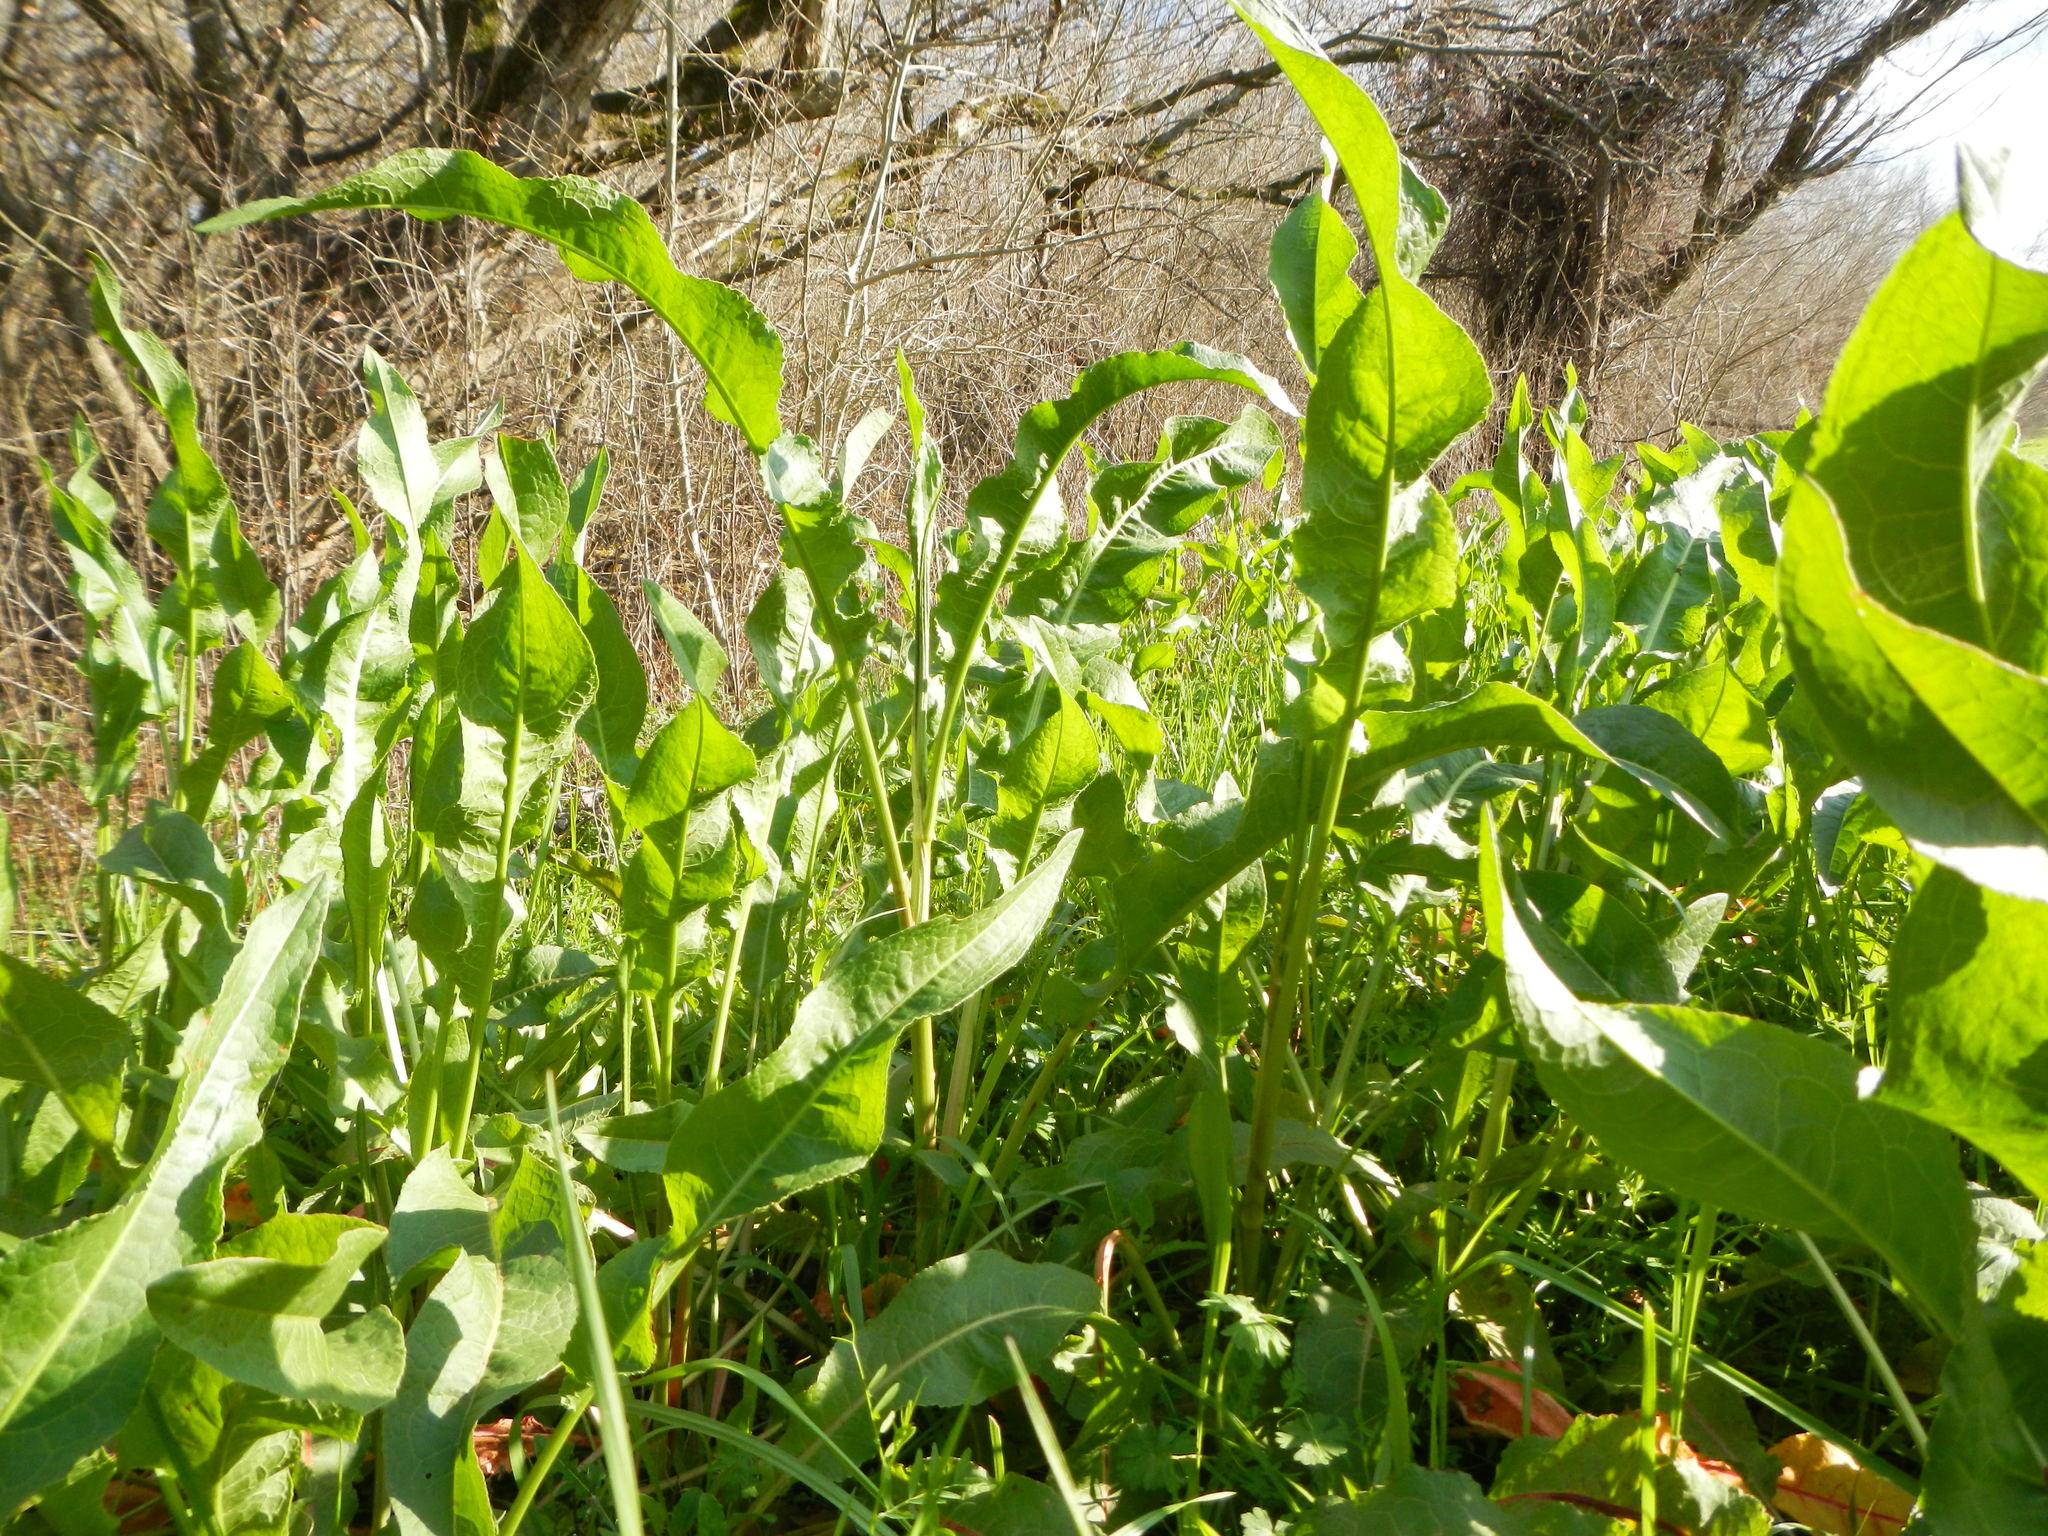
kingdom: Plantae
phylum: Tracheophyta
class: Magnoliopsida
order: Caryophyllales
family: Polygonaceae
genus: Rumex
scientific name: Rumex crispus
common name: Curled dock
